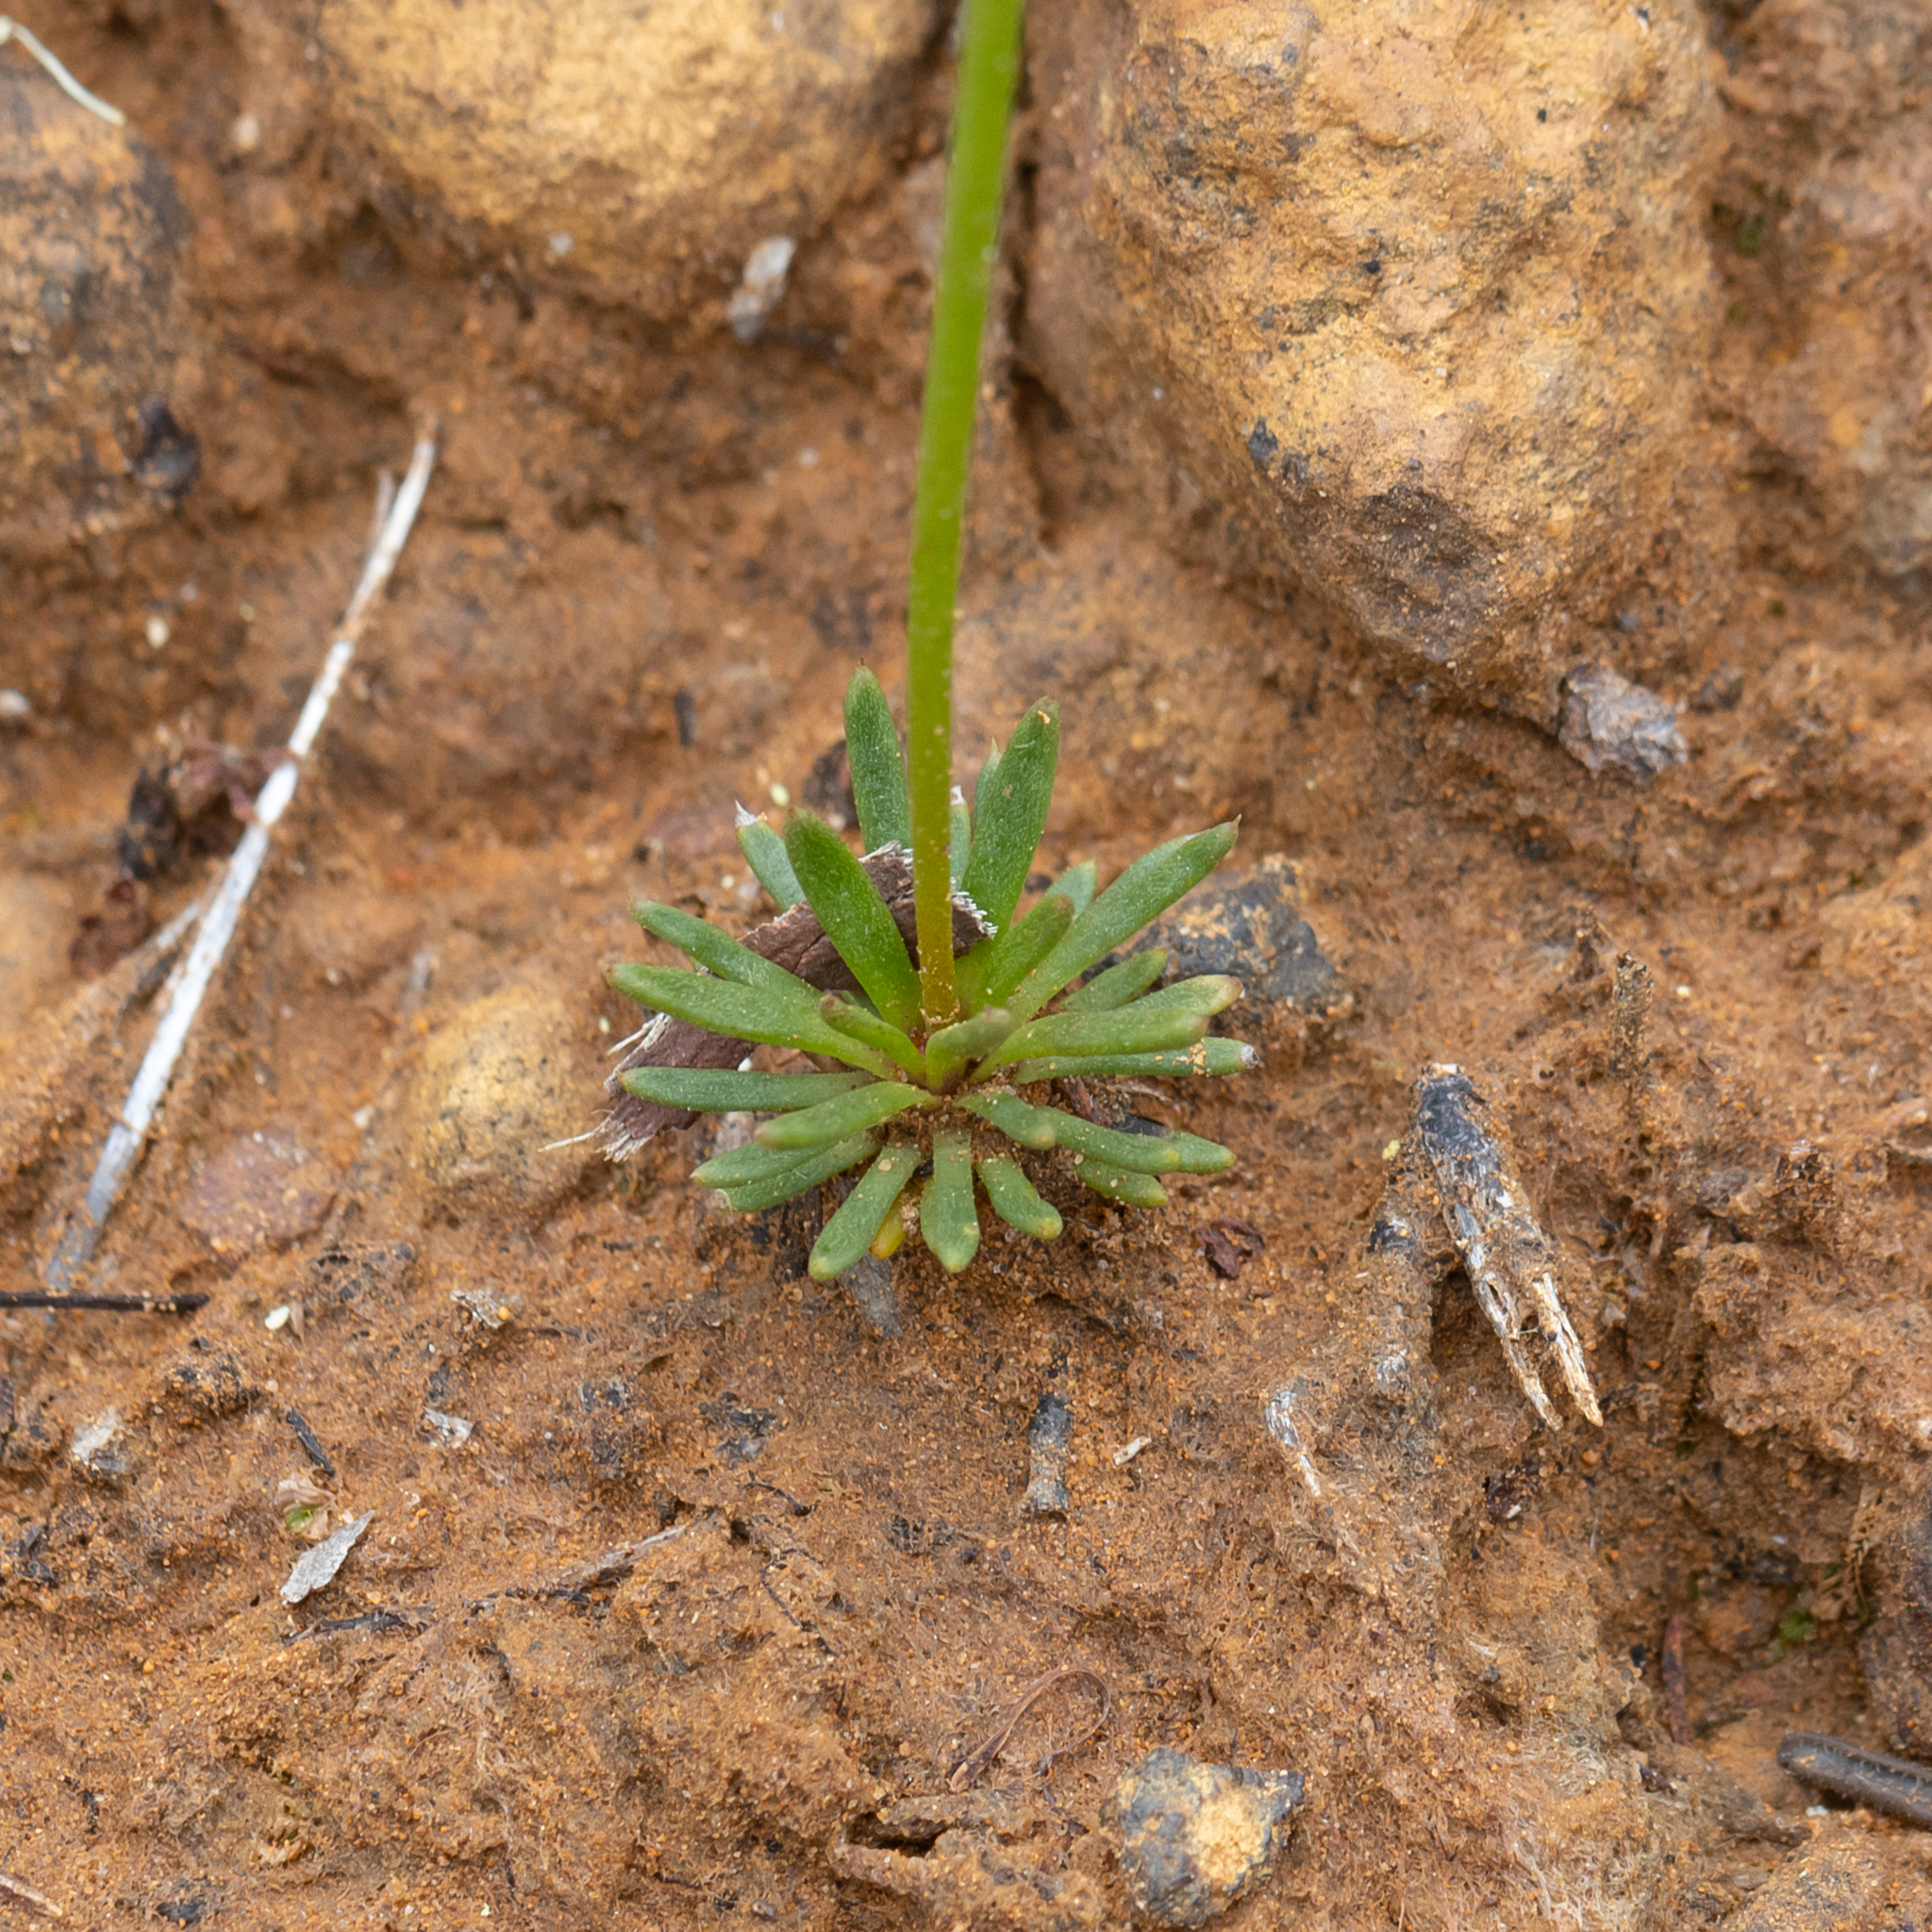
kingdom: Plantae
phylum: Tracheophyta
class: Magnoliopsida
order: Asterales
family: Stylidiaceae
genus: Stylidium
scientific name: Stylidium junceum
